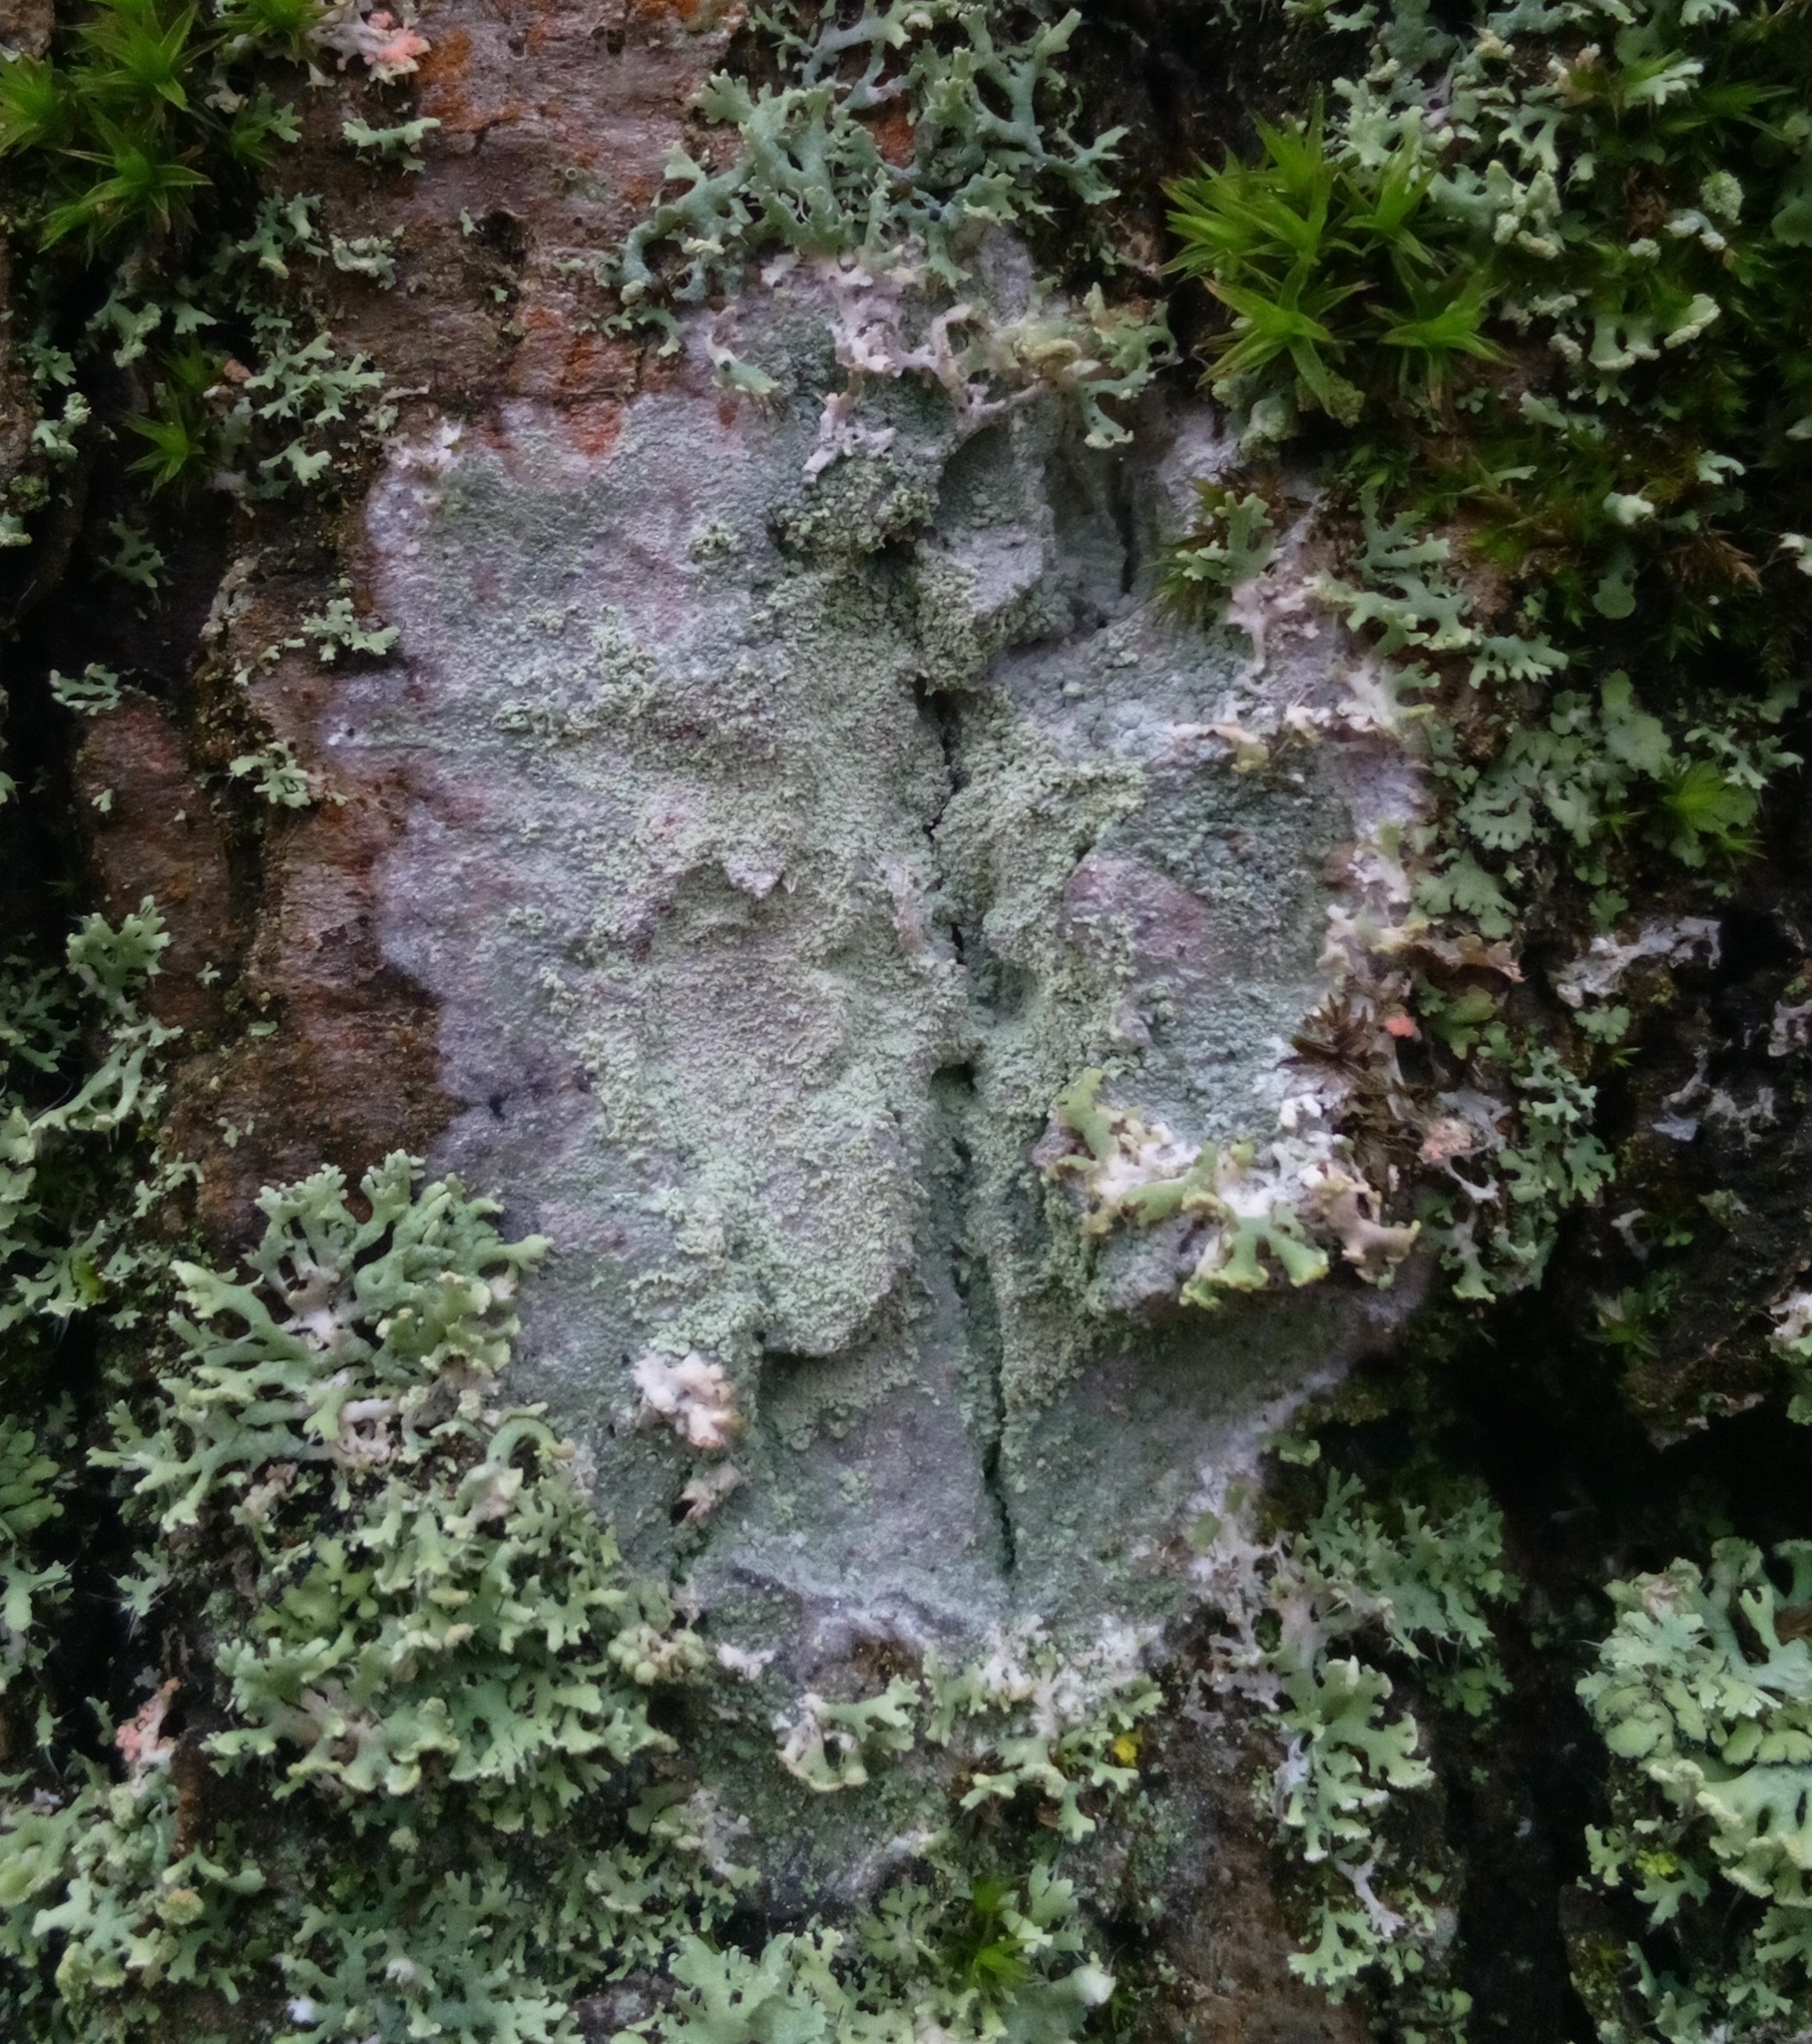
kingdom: Fungi
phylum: Ascomycota
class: Lecanoromycetes
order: Ostropales
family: Phlyctidaceae
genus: Phlyctis
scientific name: Phlyctis argena
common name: Whitewash lichen
